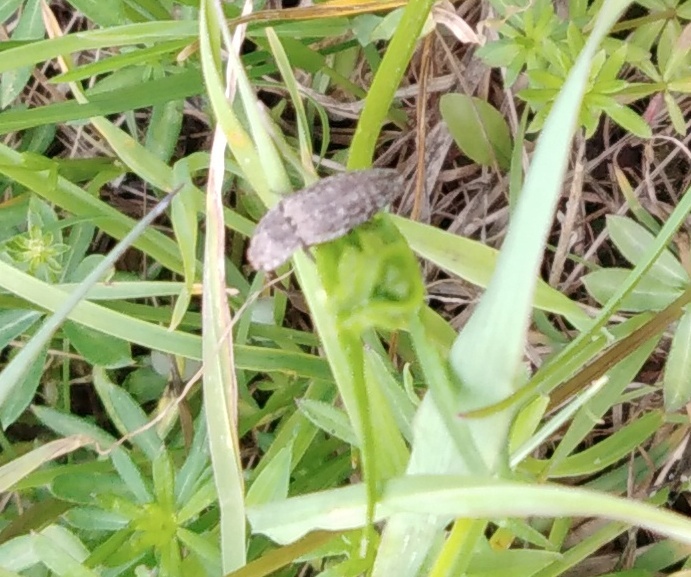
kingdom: Animalia
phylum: Arthropoda
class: Insecta
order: Coleoptera
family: Elateridae
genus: Agrypnus
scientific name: Agrypnus murinus
